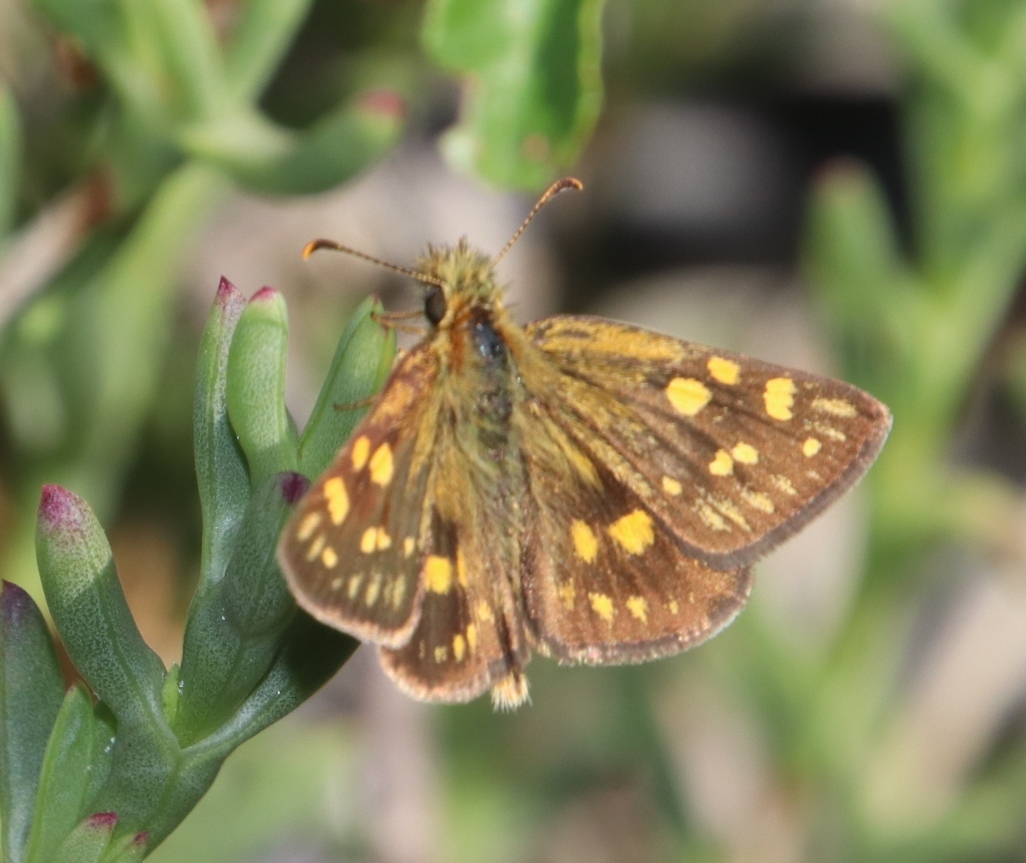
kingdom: Animalia
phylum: Arthropoda
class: Insecta
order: Lepidoptera
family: Hesperiidae
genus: Metisella
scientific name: Metisella malgacha
